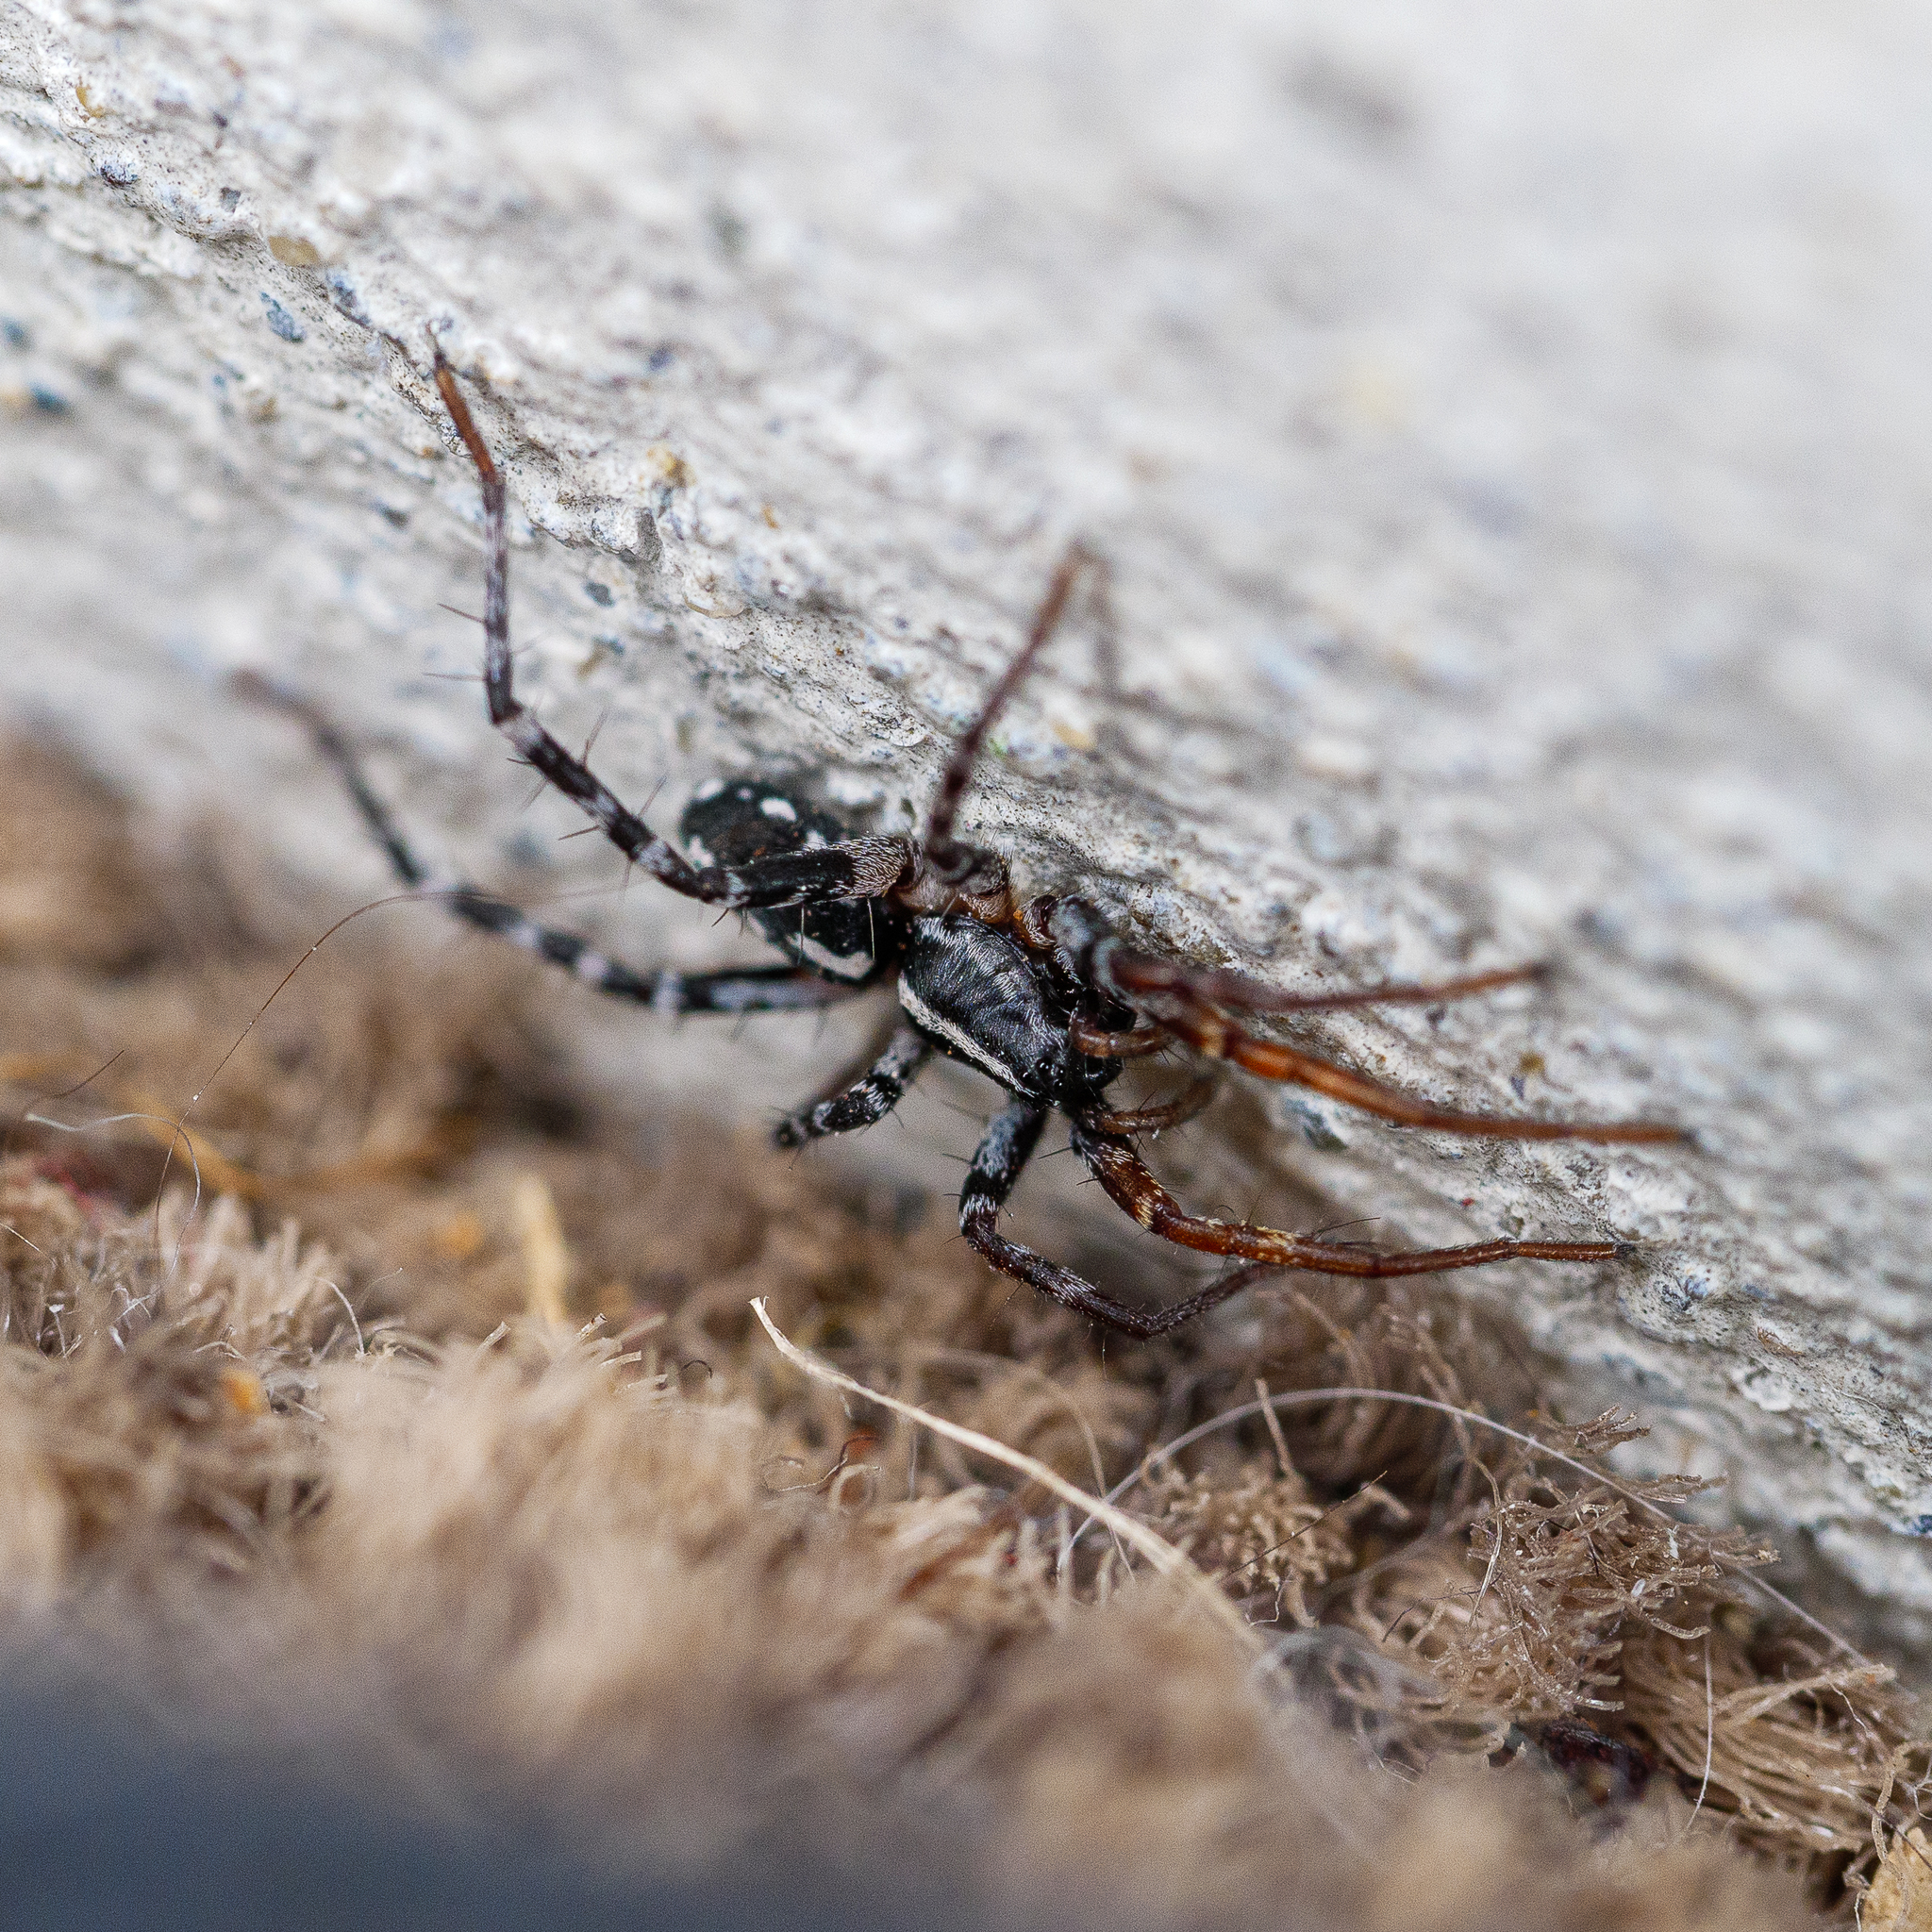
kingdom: Animalia
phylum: Arthropoda
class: Arachnida
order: Araneae
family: Corinnidae
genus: Nyssus
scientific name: Nyssus coloripes
